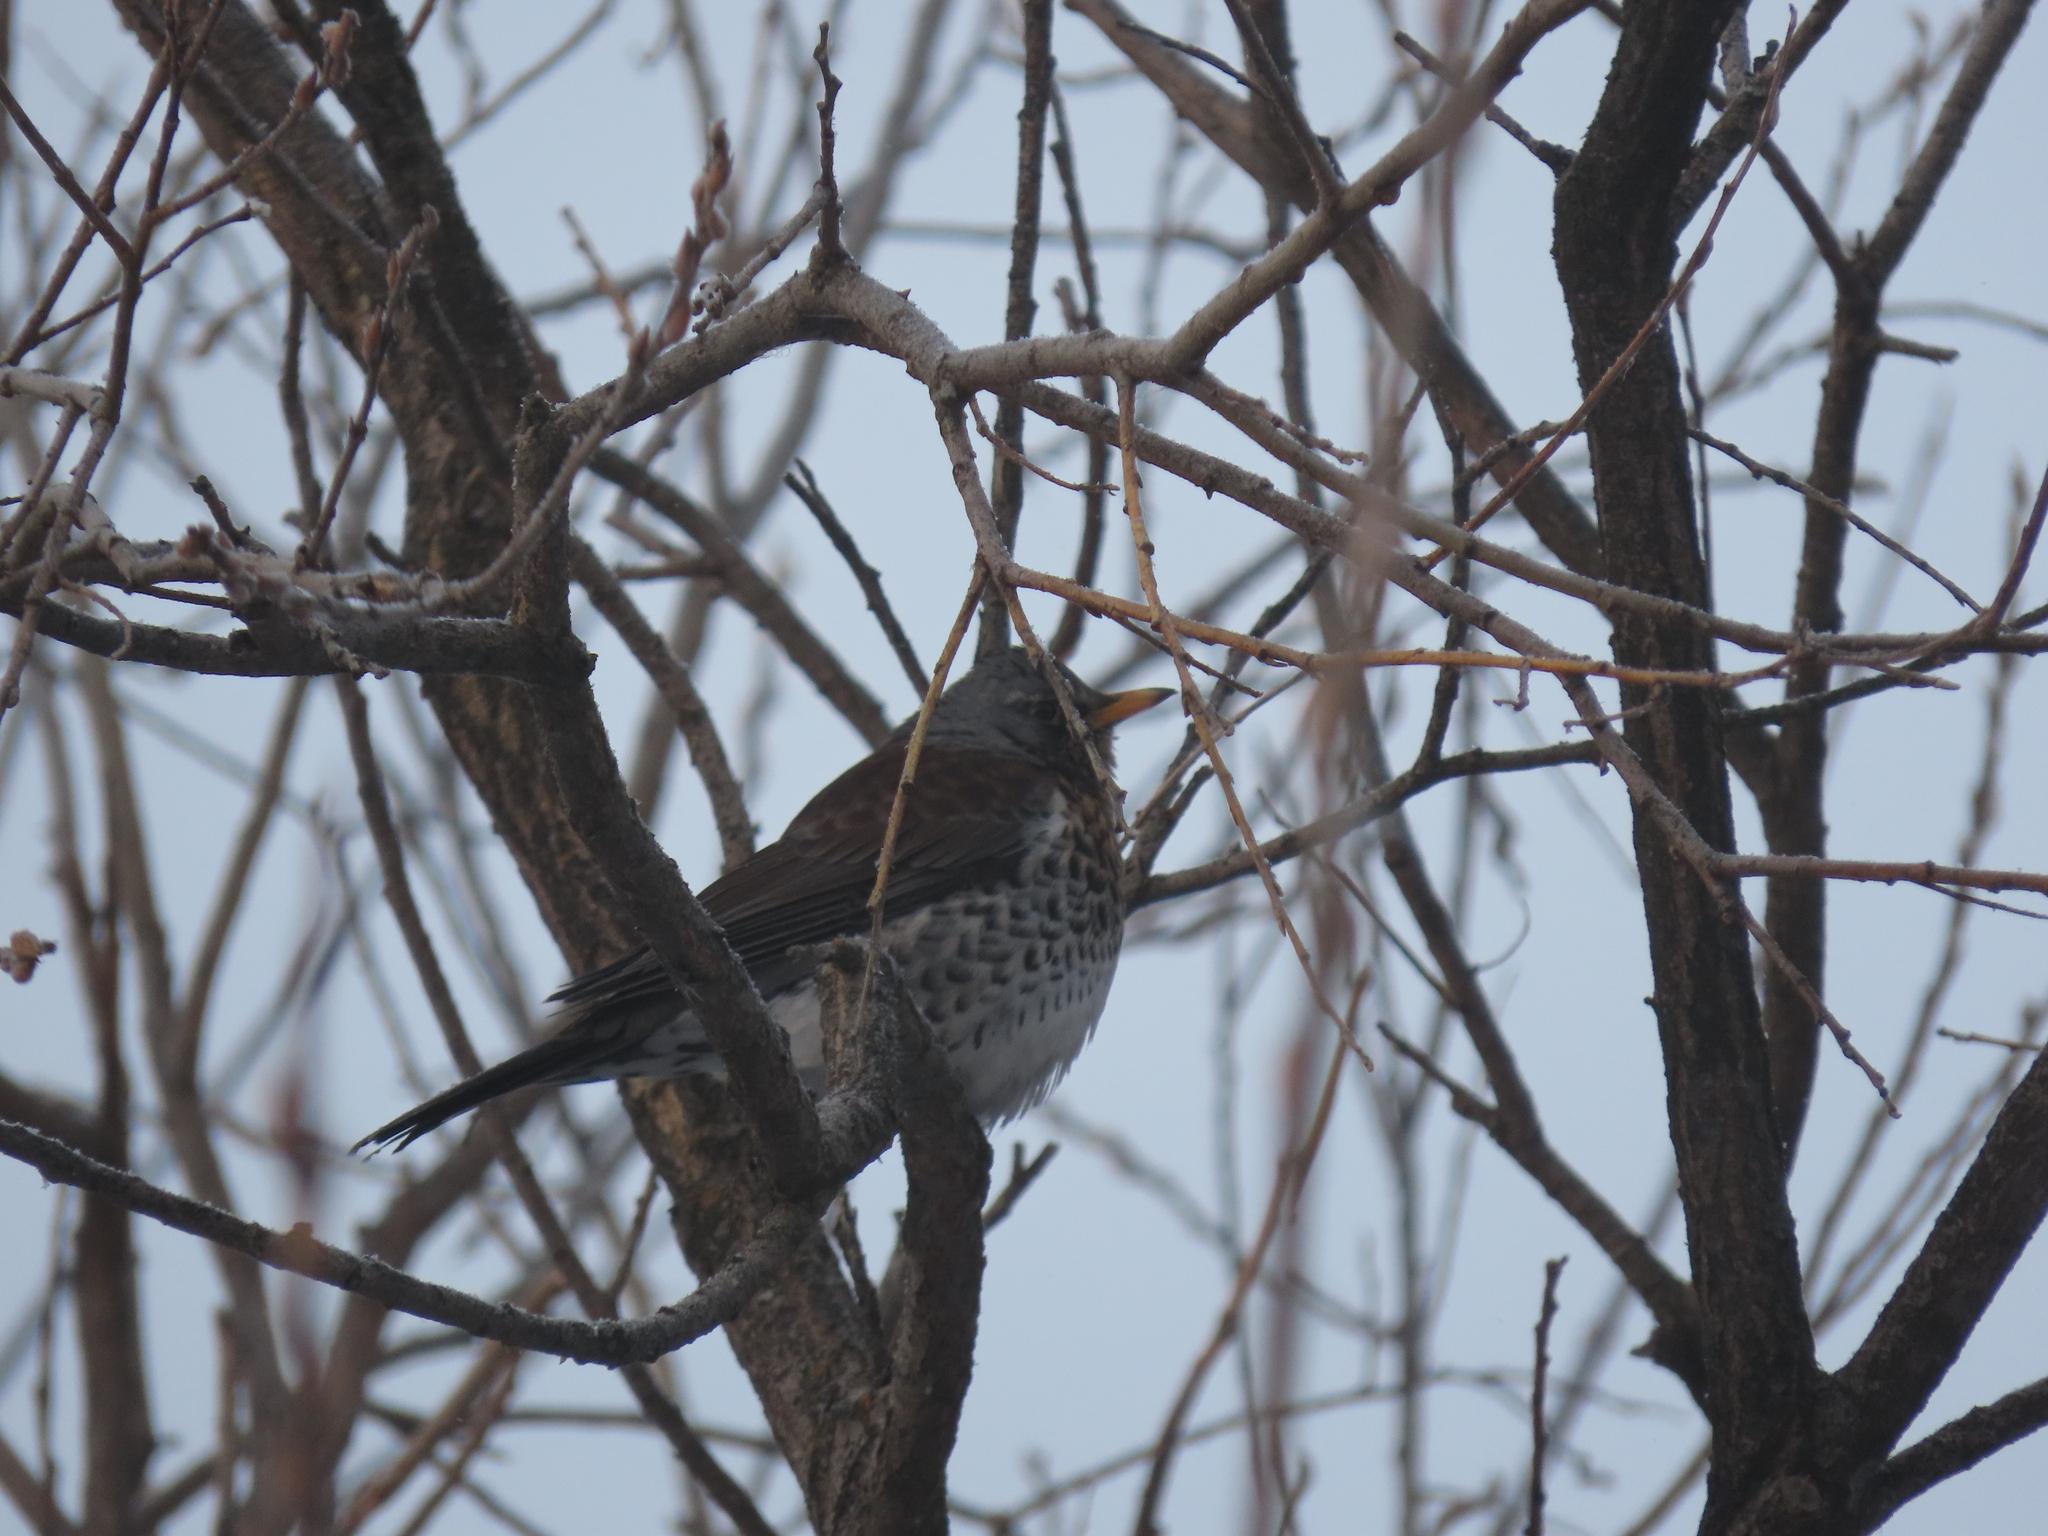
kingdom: Animalia
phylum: Chordata
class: Aves
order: Passeriformes
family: Turdidae
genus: Turdus
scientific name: Turdus pilaris
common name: Fieldfare
